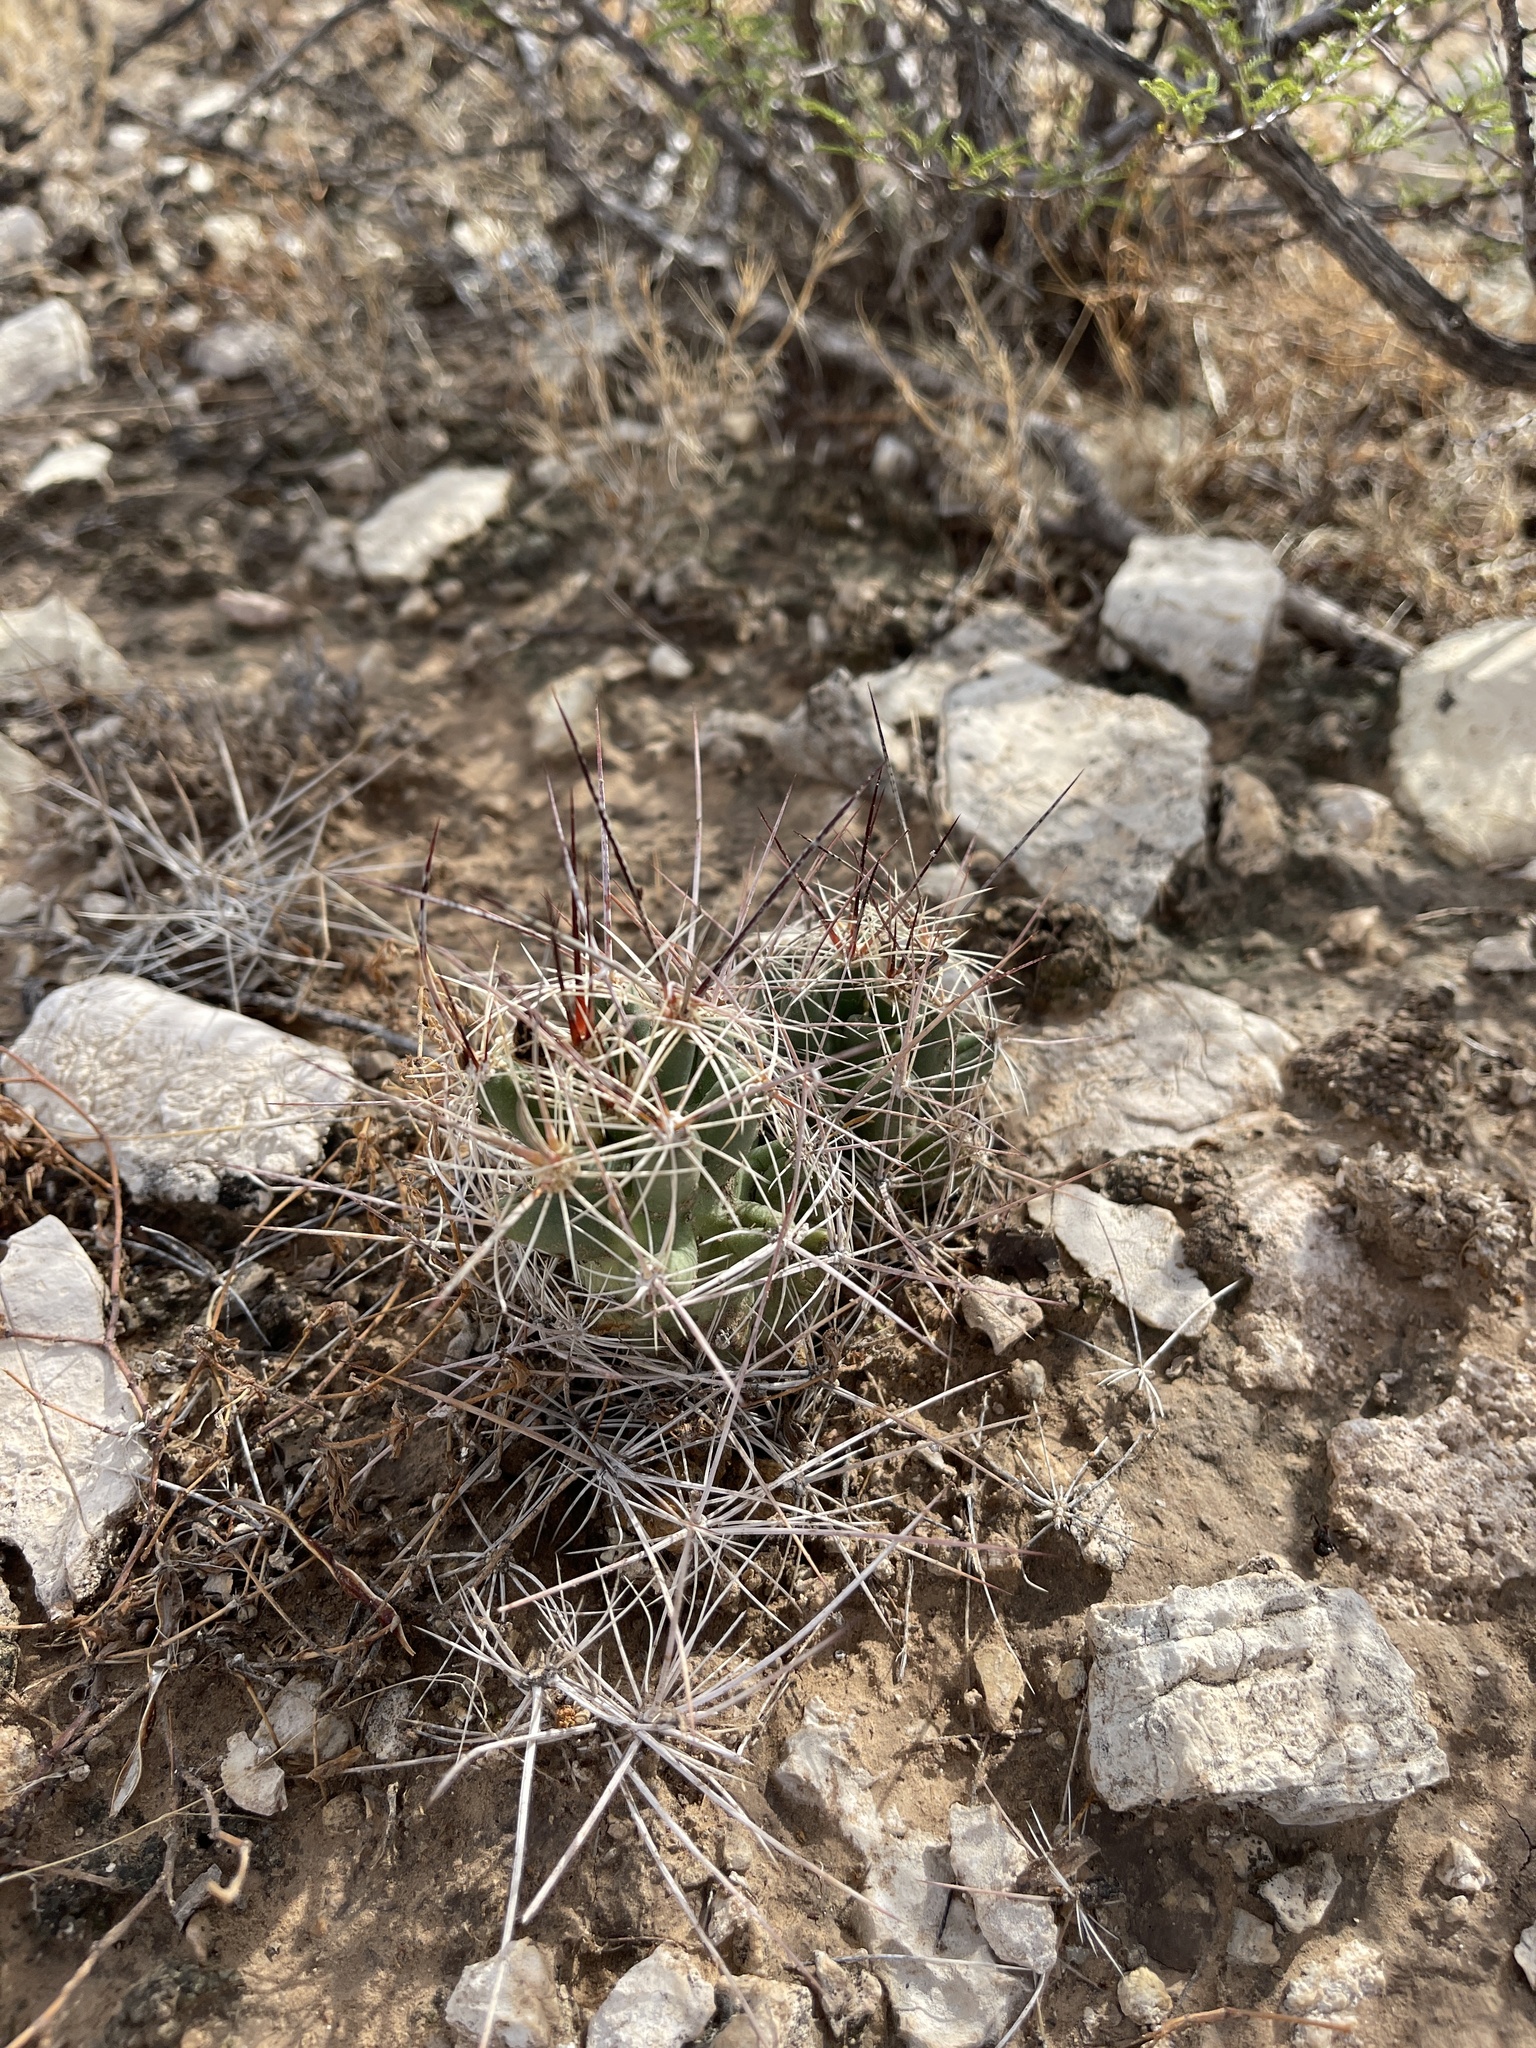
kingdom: Plantae
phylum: Tracheophyta
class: Magnoliopsida
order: Caryophyllales
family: Cactaceae
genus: Coryphantha
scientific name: Coryphantha macromeris
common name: Nipple beehive cactus
